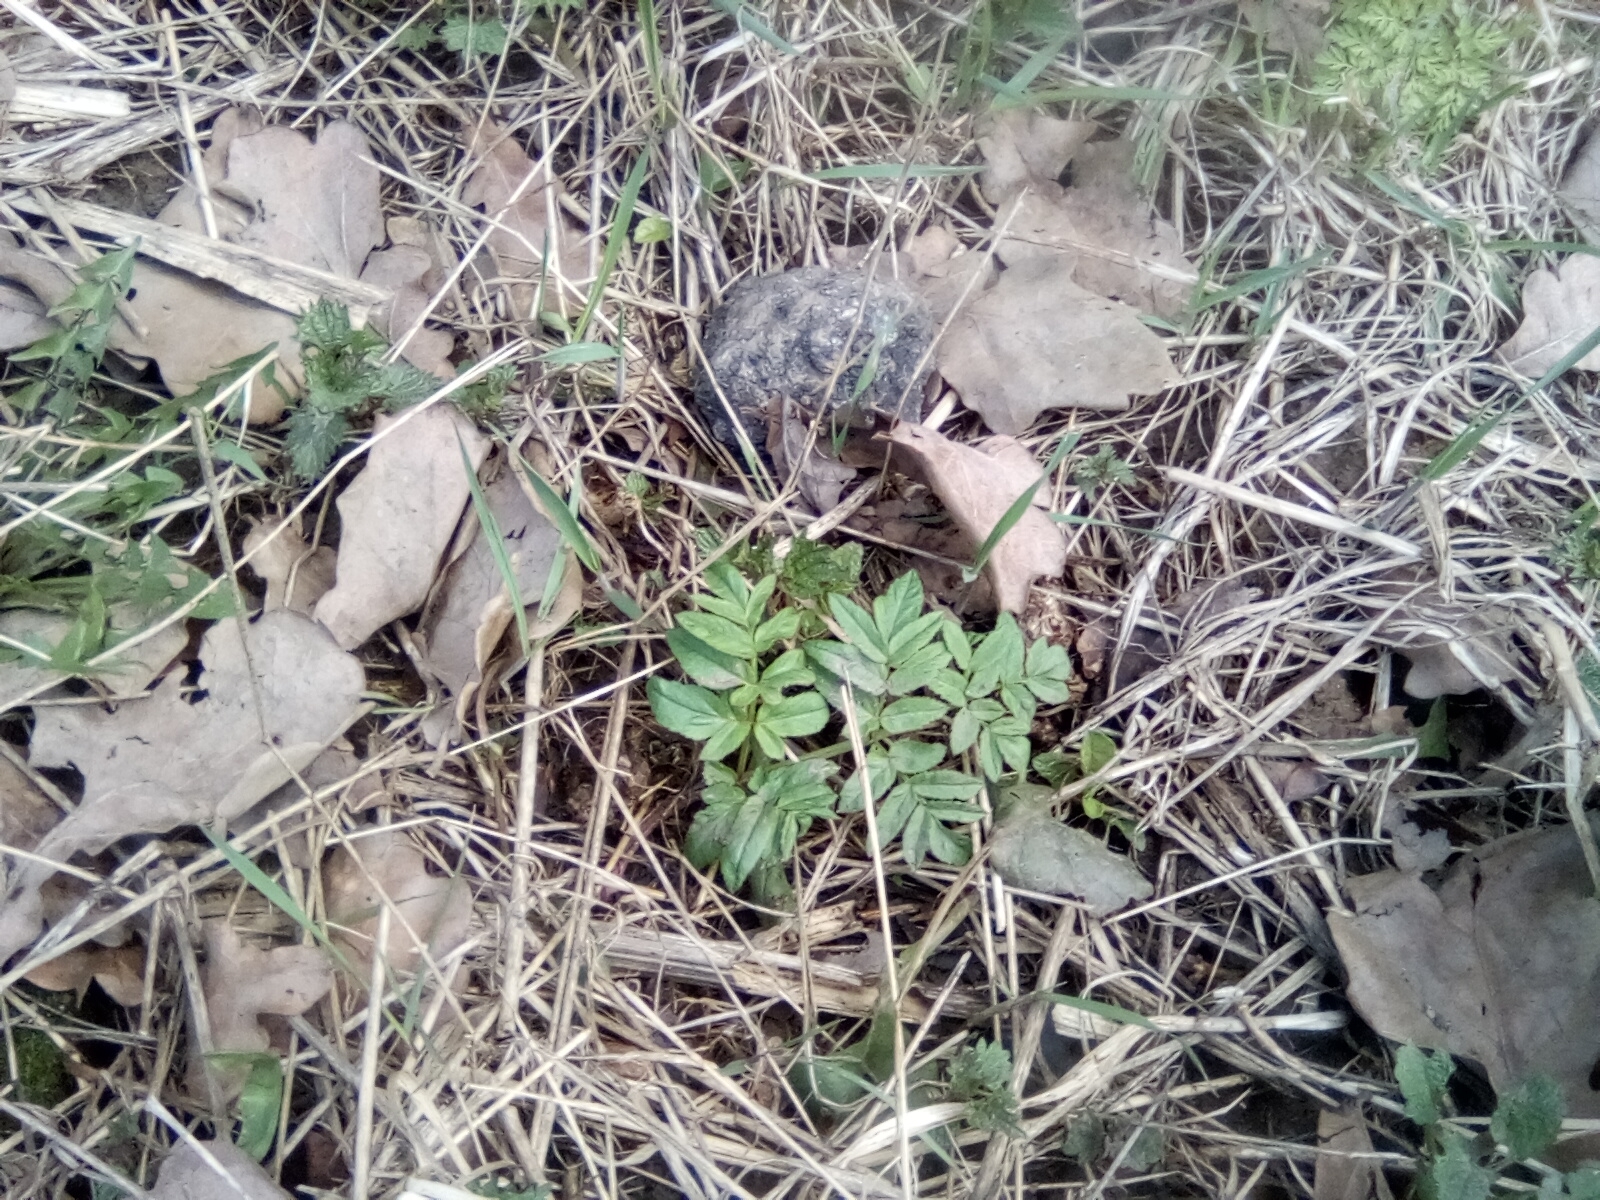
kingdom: Plantae
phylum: Tracheophyta
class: Magnoliopsida
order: Apiales
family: Apiaceae
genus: Angelica
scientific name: Angelica sylvestris
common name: Wild angelica
